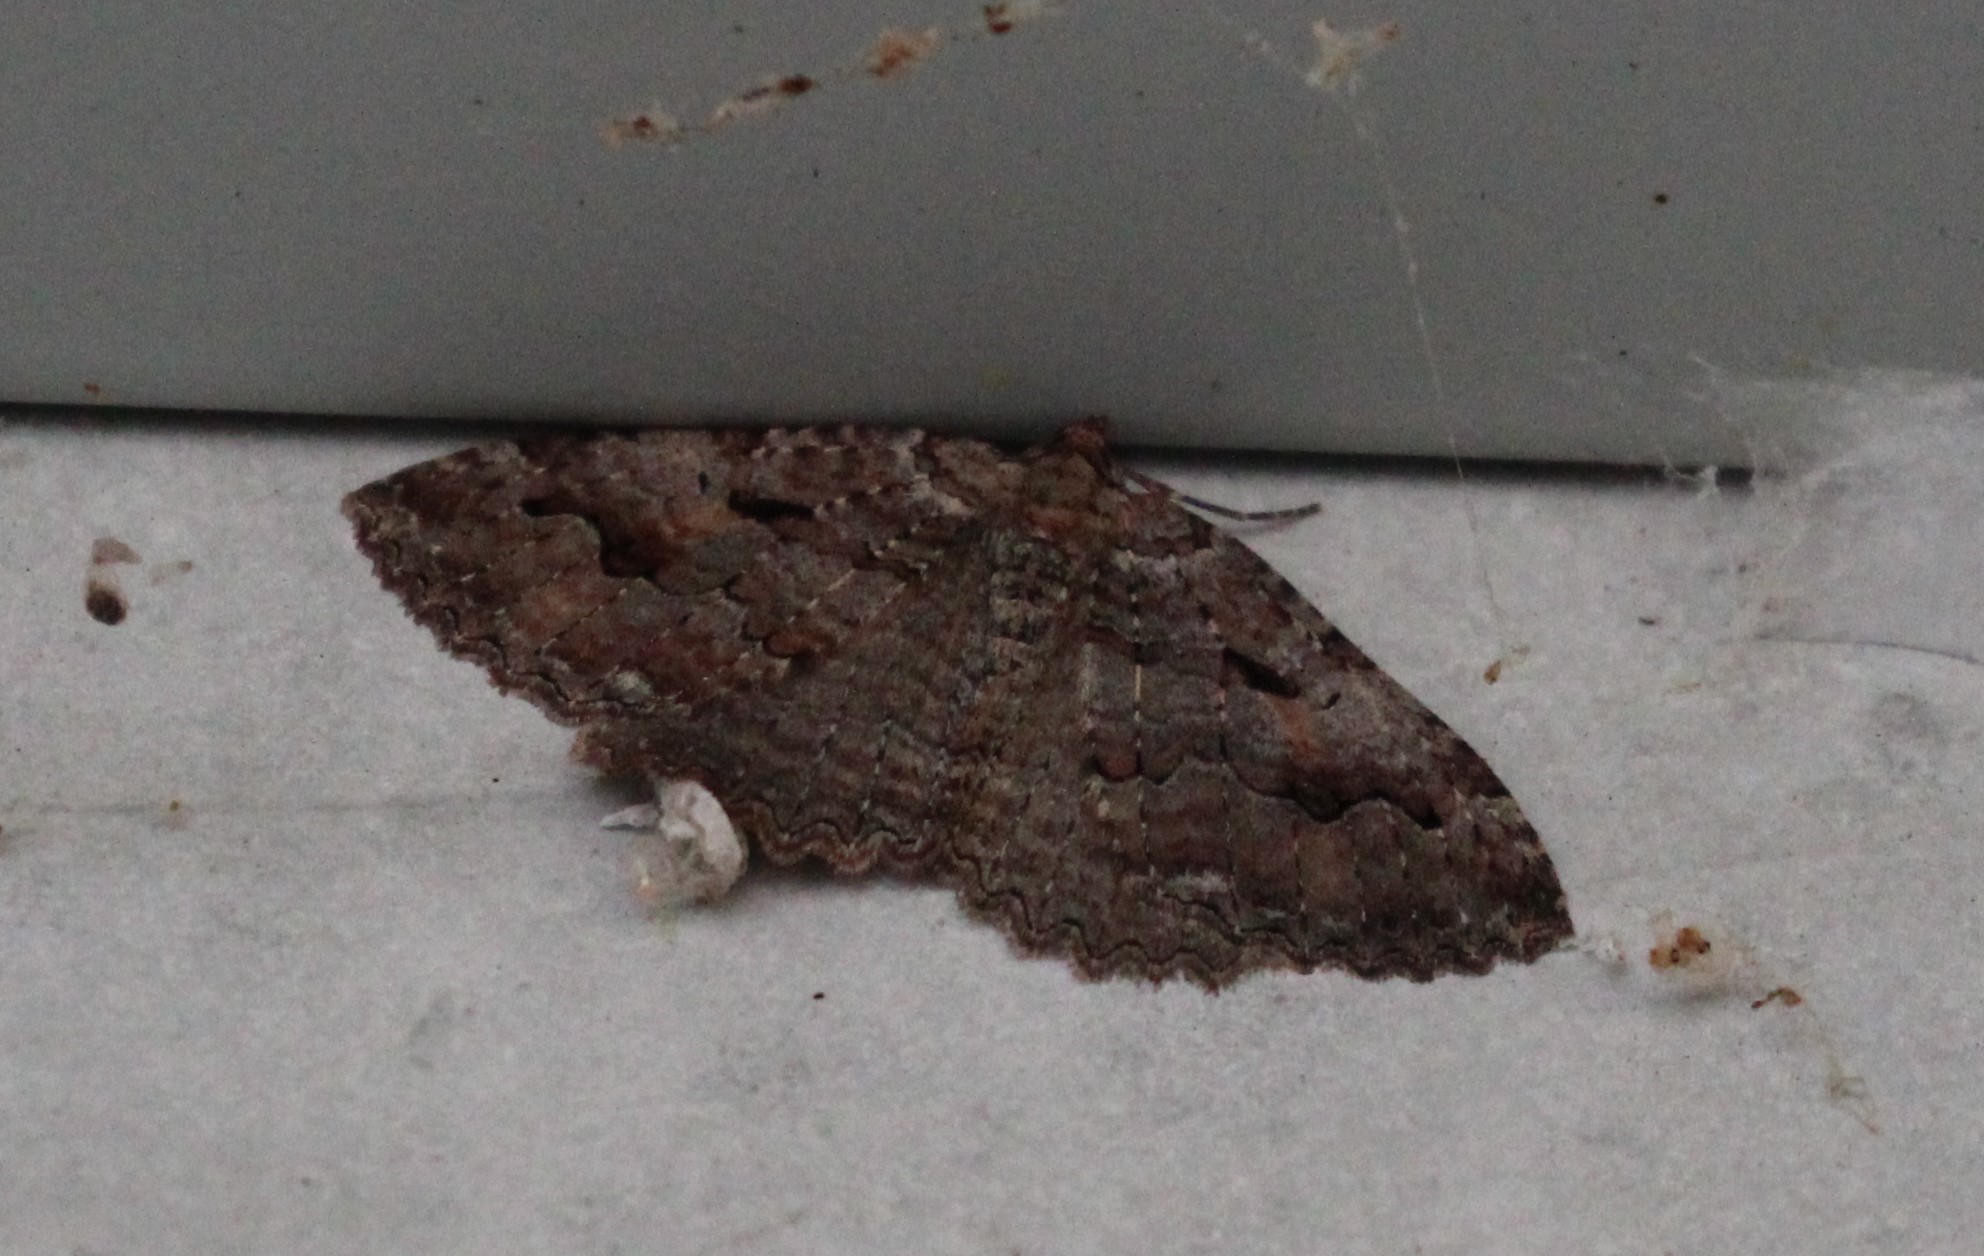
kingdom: Animalia
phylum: Arthropoda
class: Insecta
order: Lepidoptera
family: Geometridae
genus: Triphosa
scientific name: Triphosa haesitata
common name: Tissue moth
